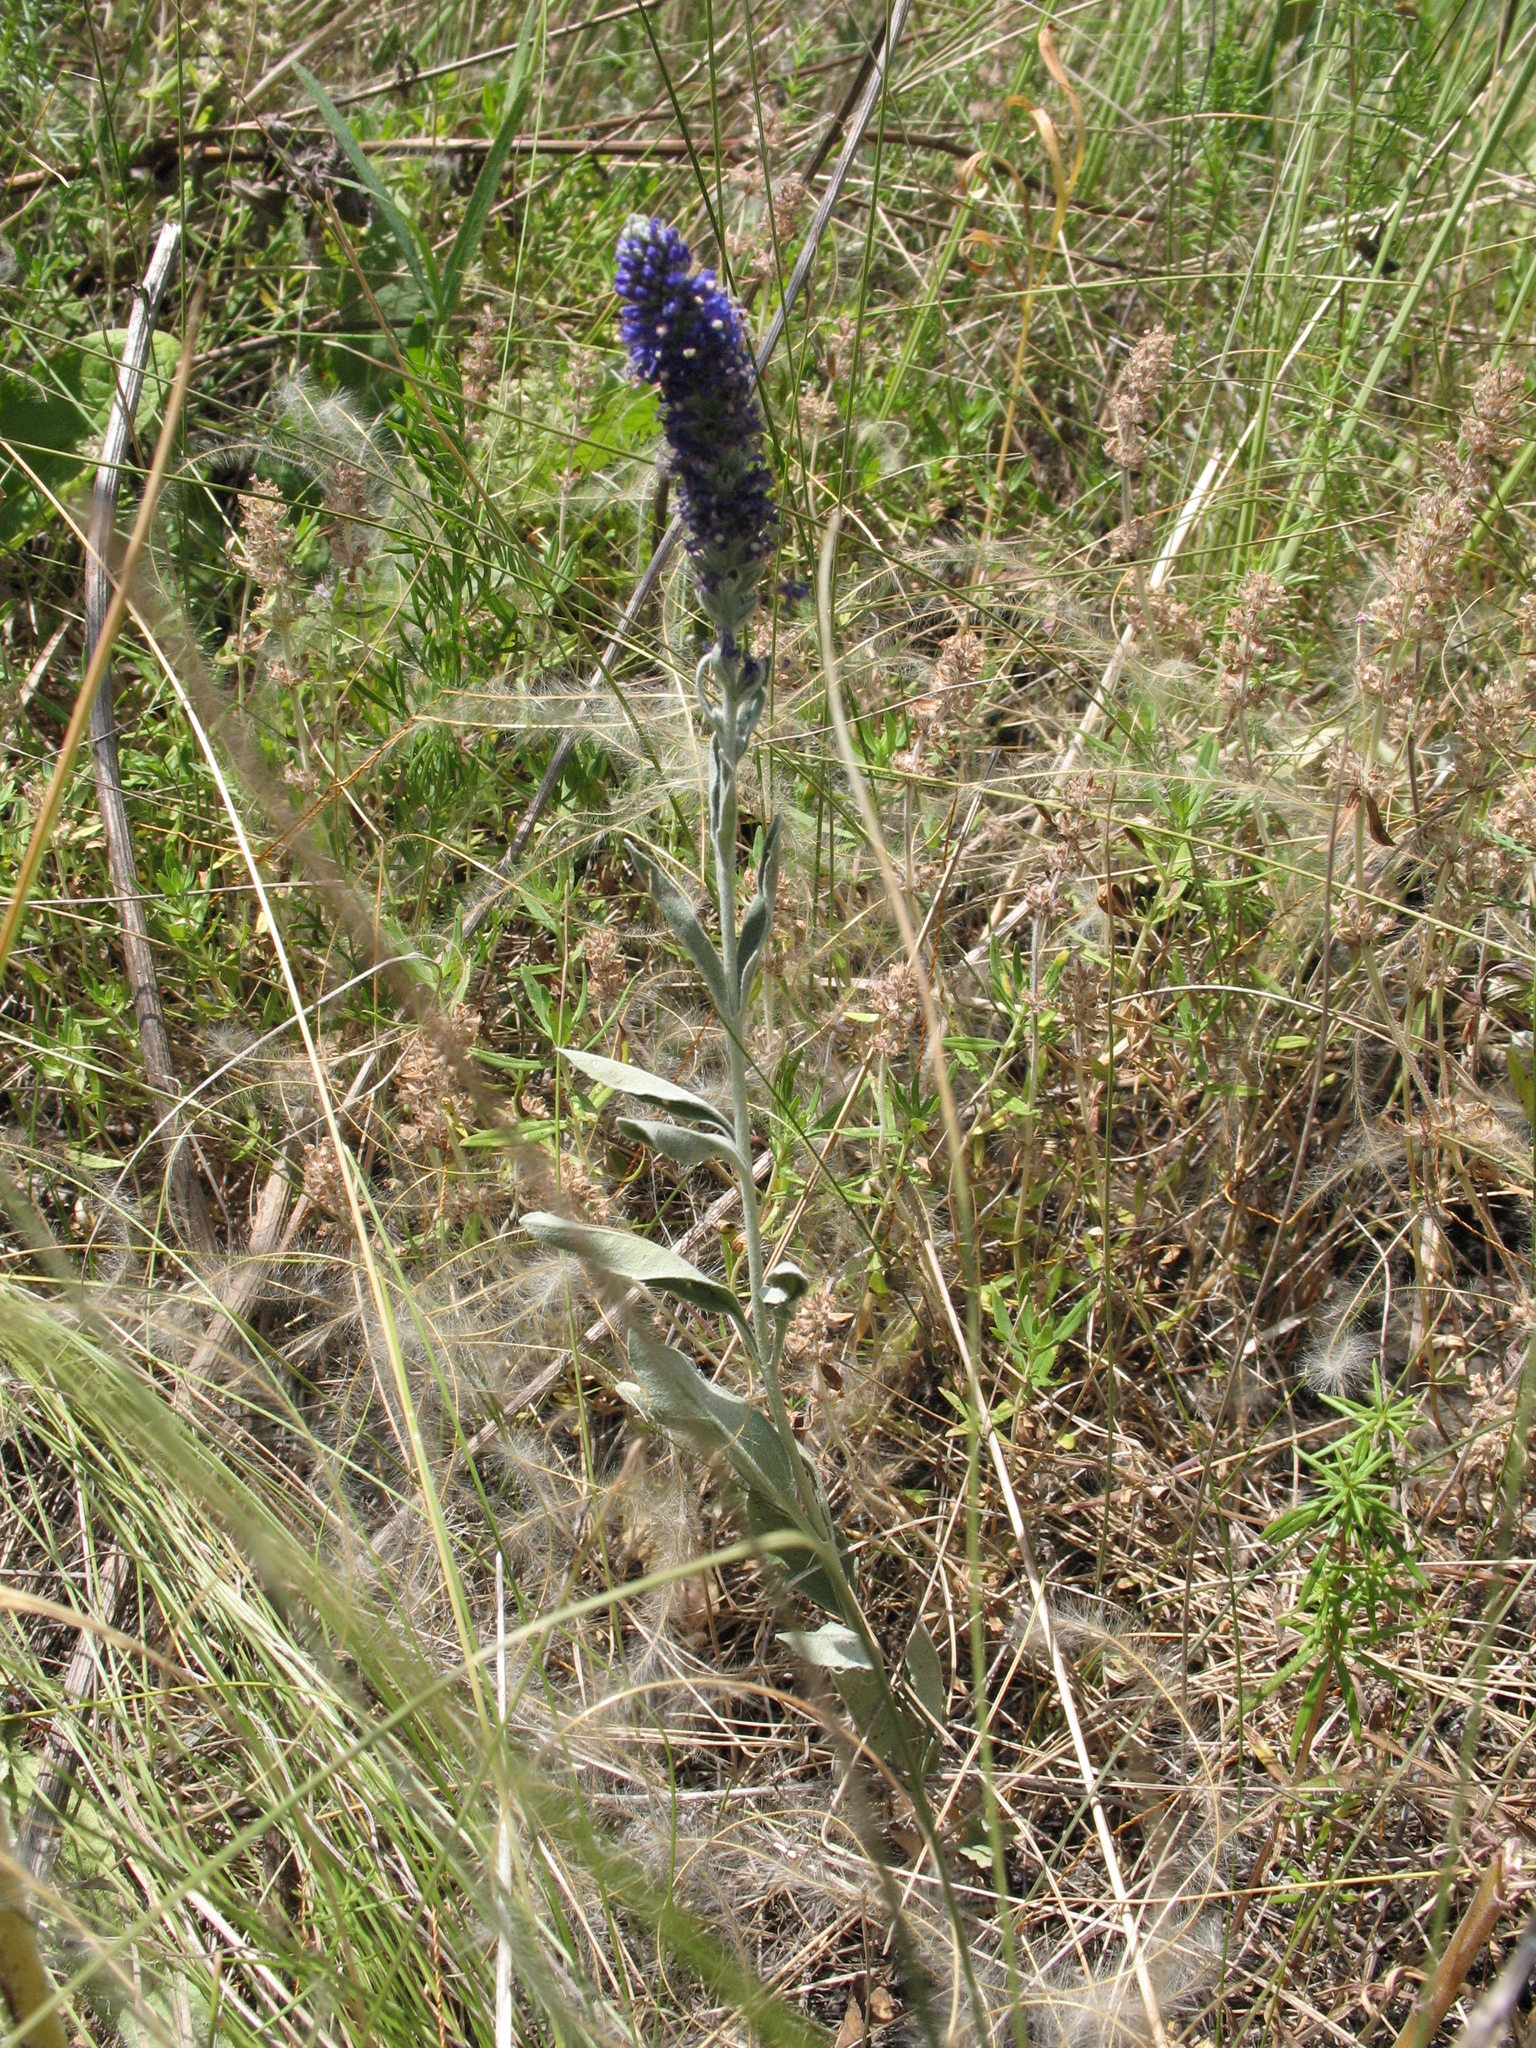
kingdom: Plantae
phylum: Tracheophyta
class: Magnoliopsida
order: Lamiales
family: Plantaginaceae
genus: Veronica
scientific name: Veronica incana
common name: Silver speedwell
